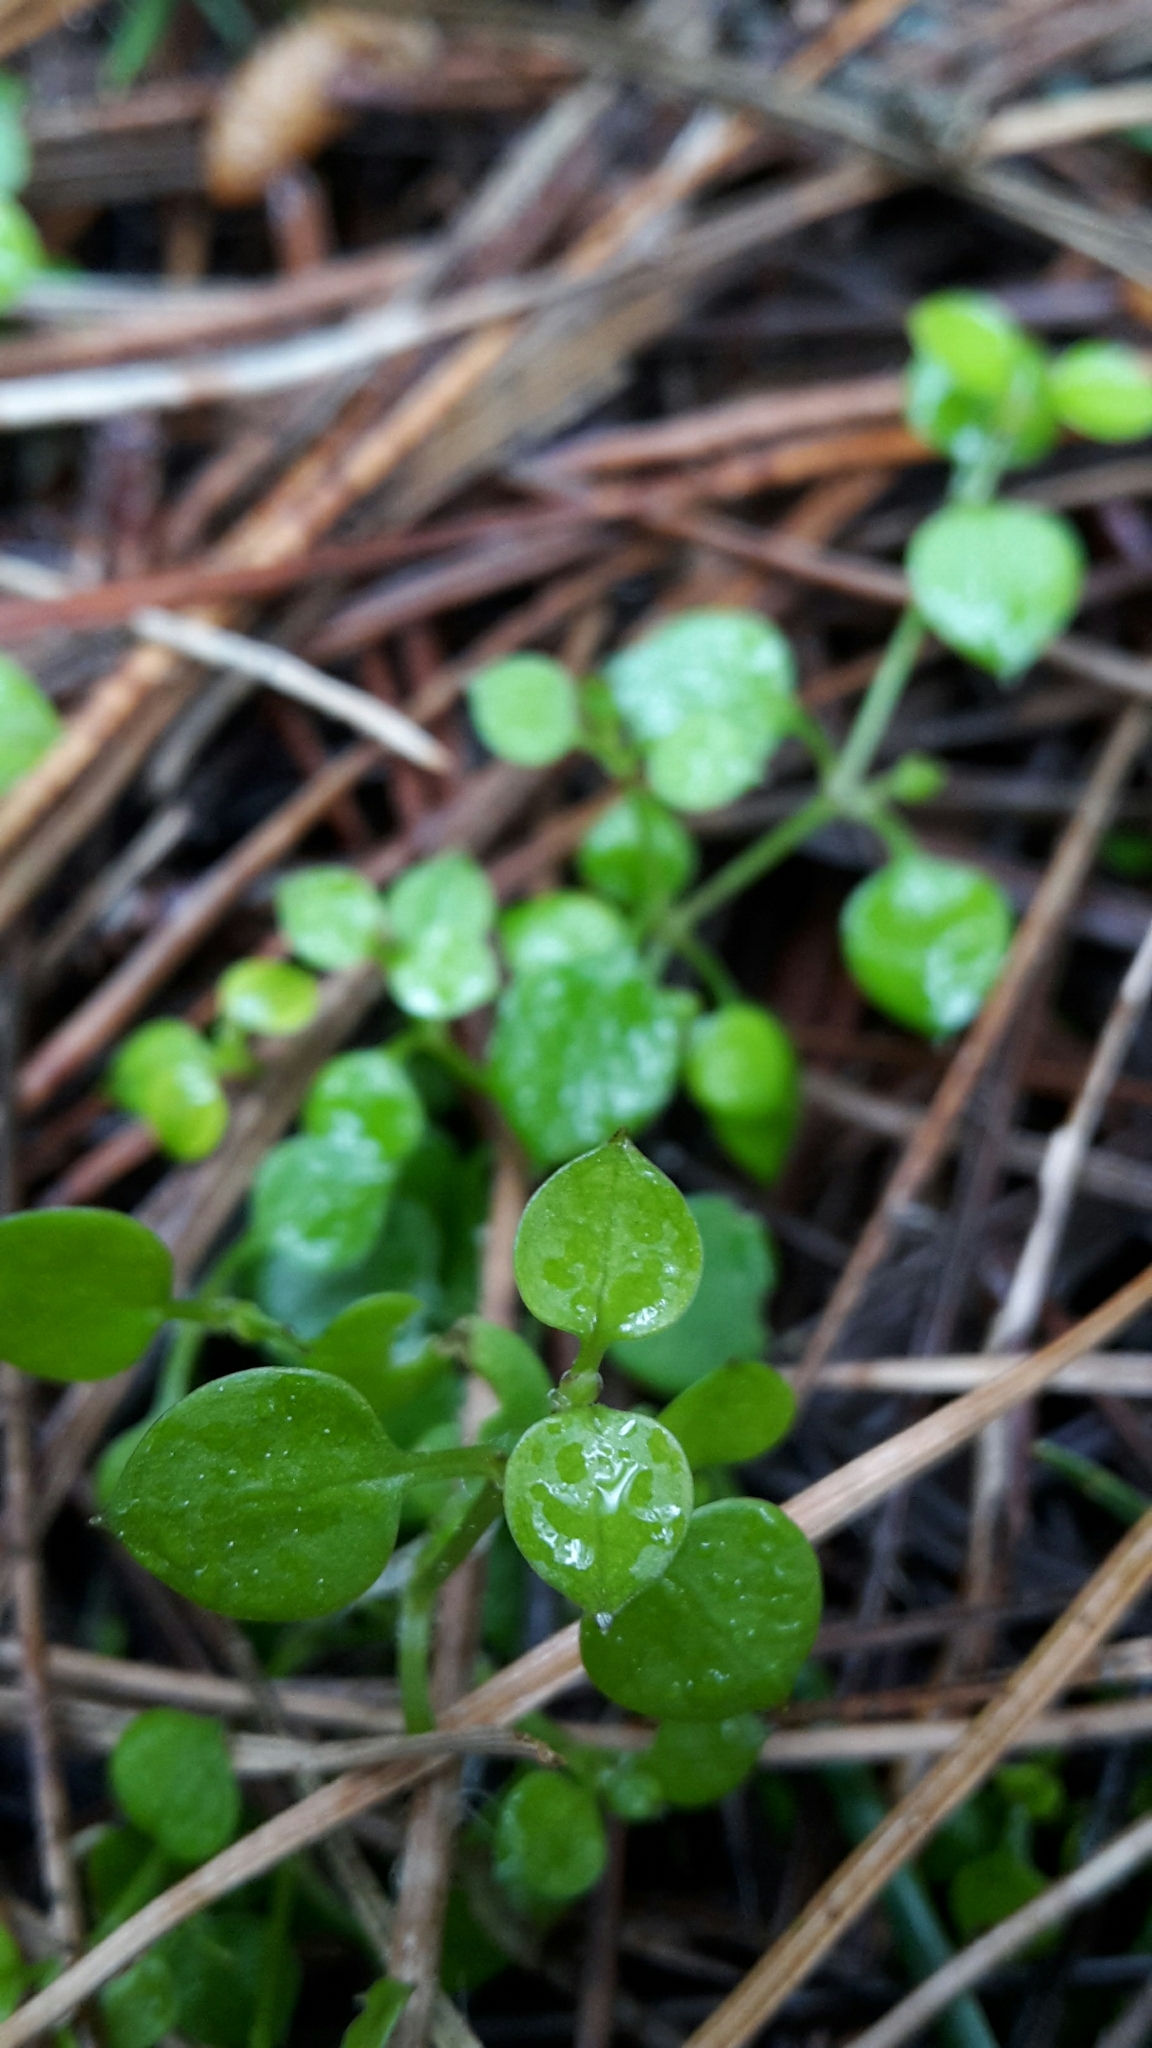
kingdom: Plantae
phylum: Tracheophyta
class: Magnoliopsida
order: Caryophyllales
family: Caryophyllaceae
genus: Stellaria
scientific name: Stellaria parviflora
